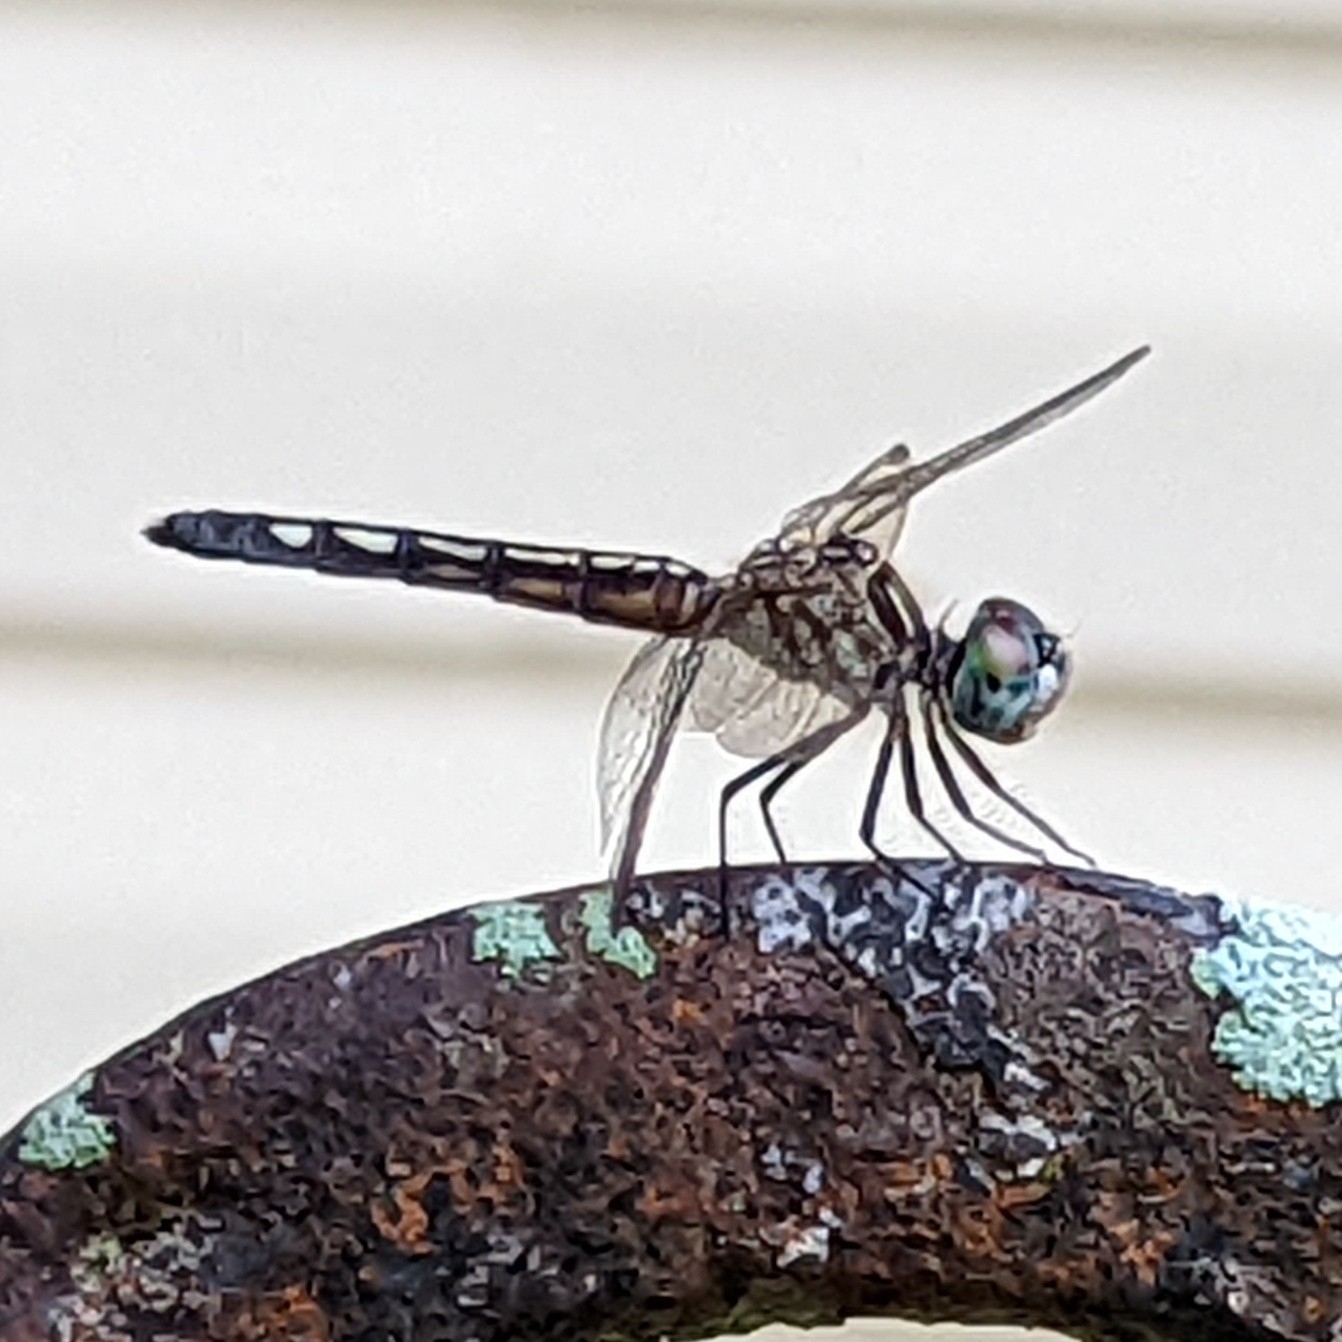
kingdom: Animalia
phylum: Arthropoda
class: Insecta
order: Odonata
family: Libellulidae
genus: Pachydiplax
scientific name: Pachydiplax longipennis
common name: Blue dasher
